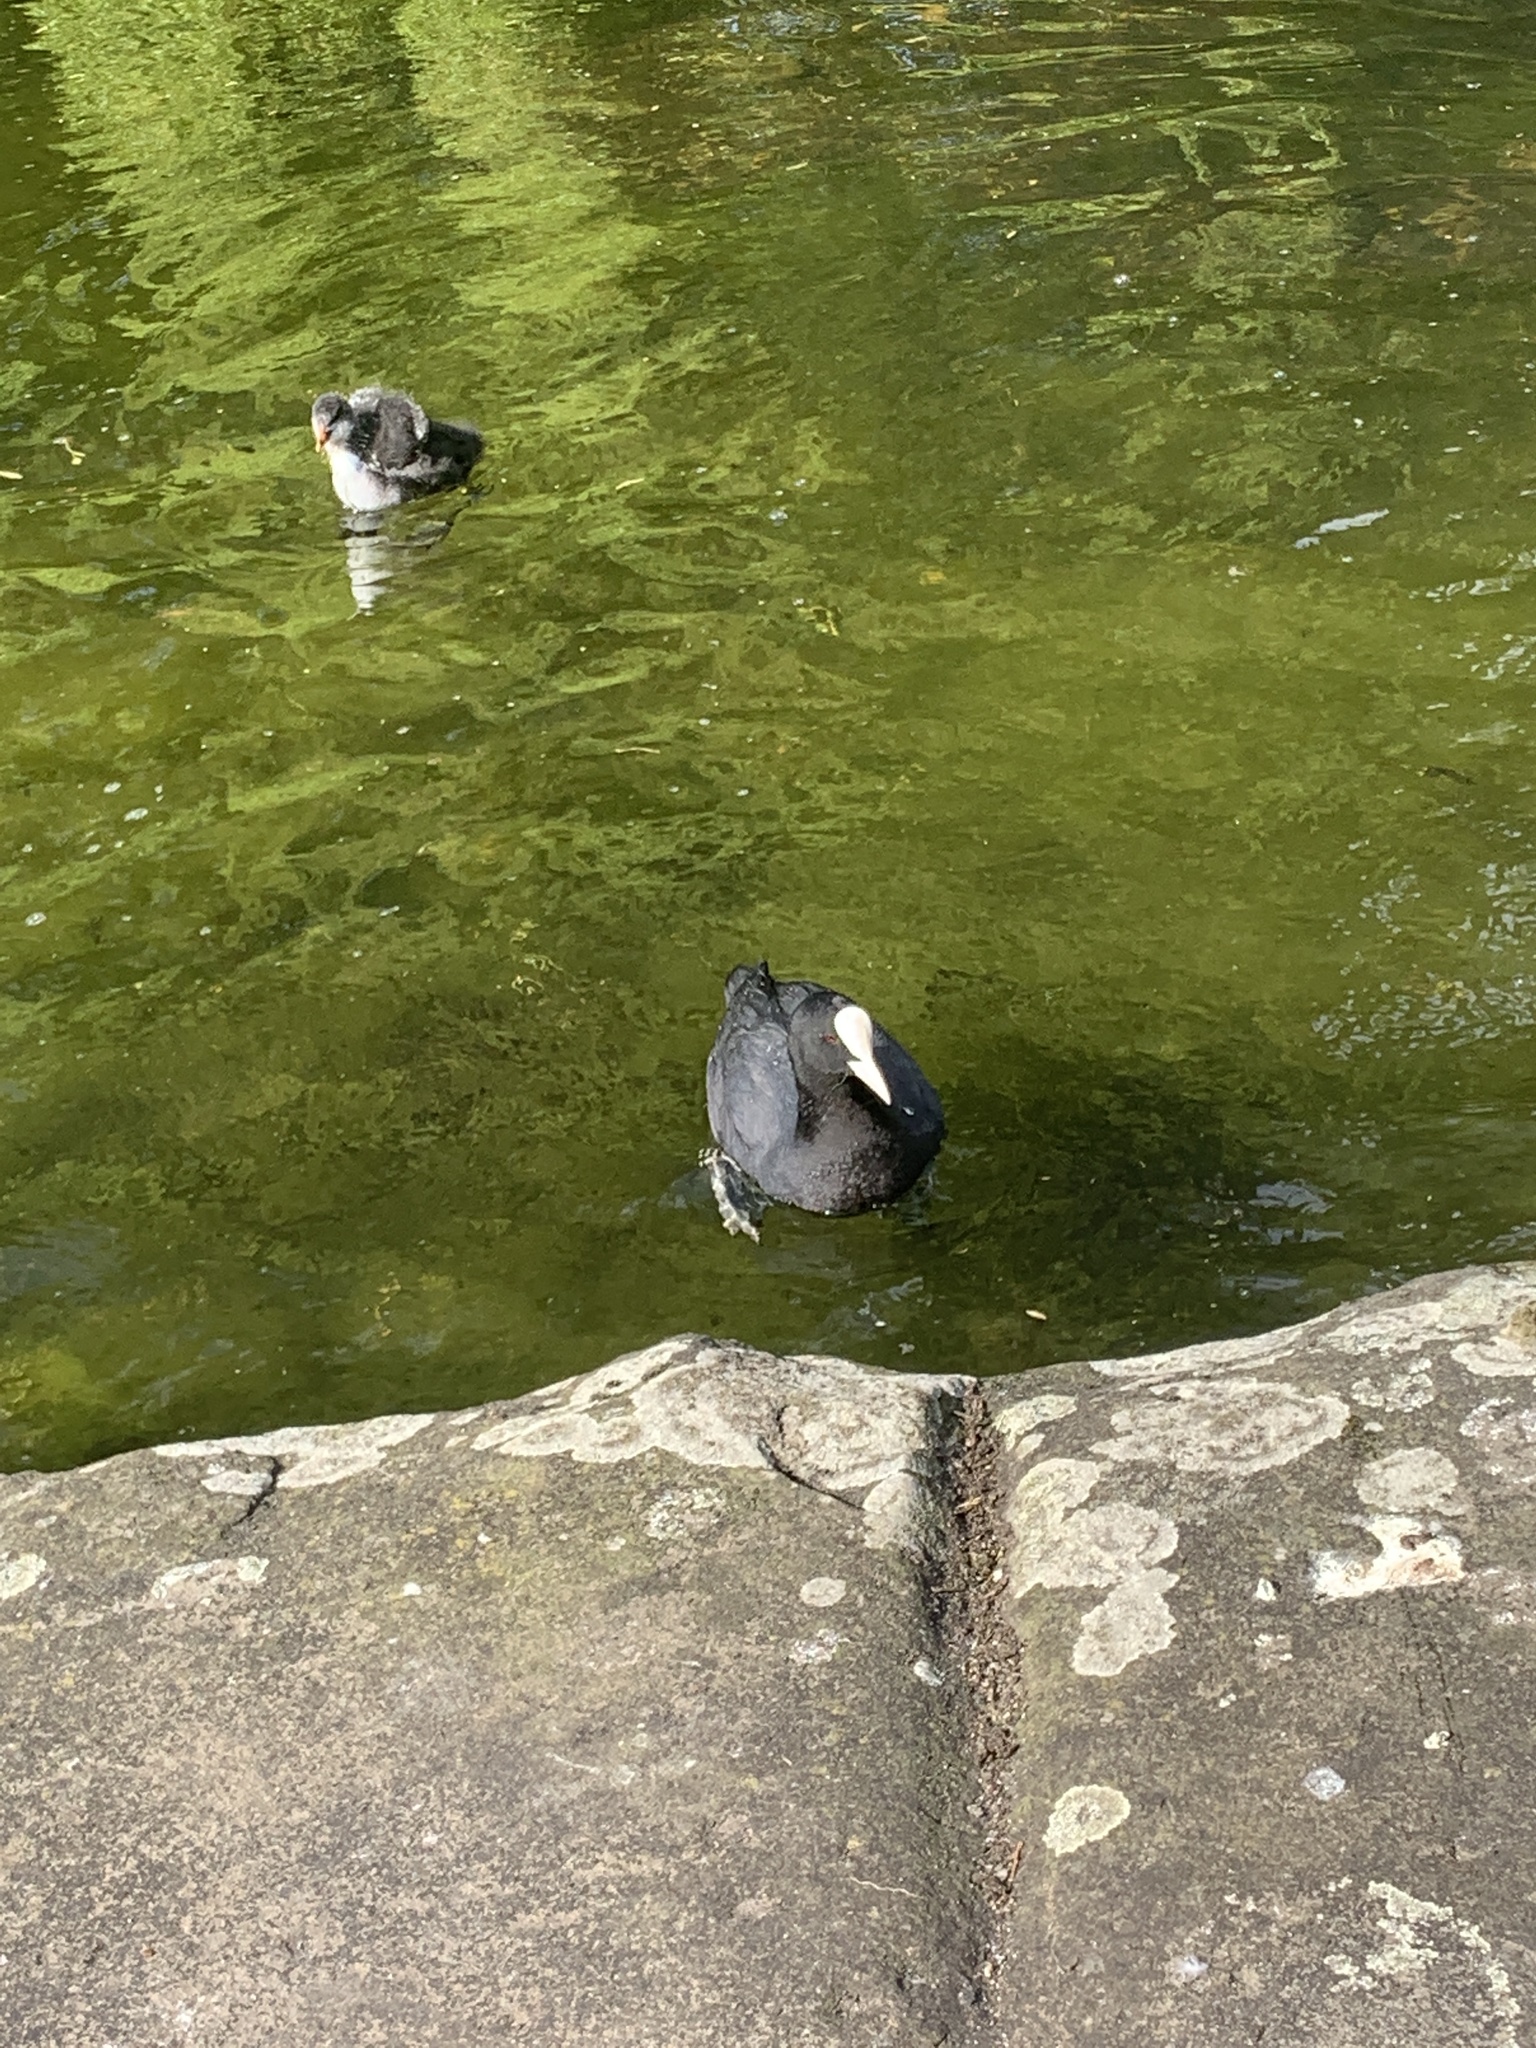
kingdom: Animalia
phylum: Chordata
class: Aves
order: Gruiformes
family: Rallidae
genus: Fulica
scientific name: Fulica atra
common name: Eurasian coot
